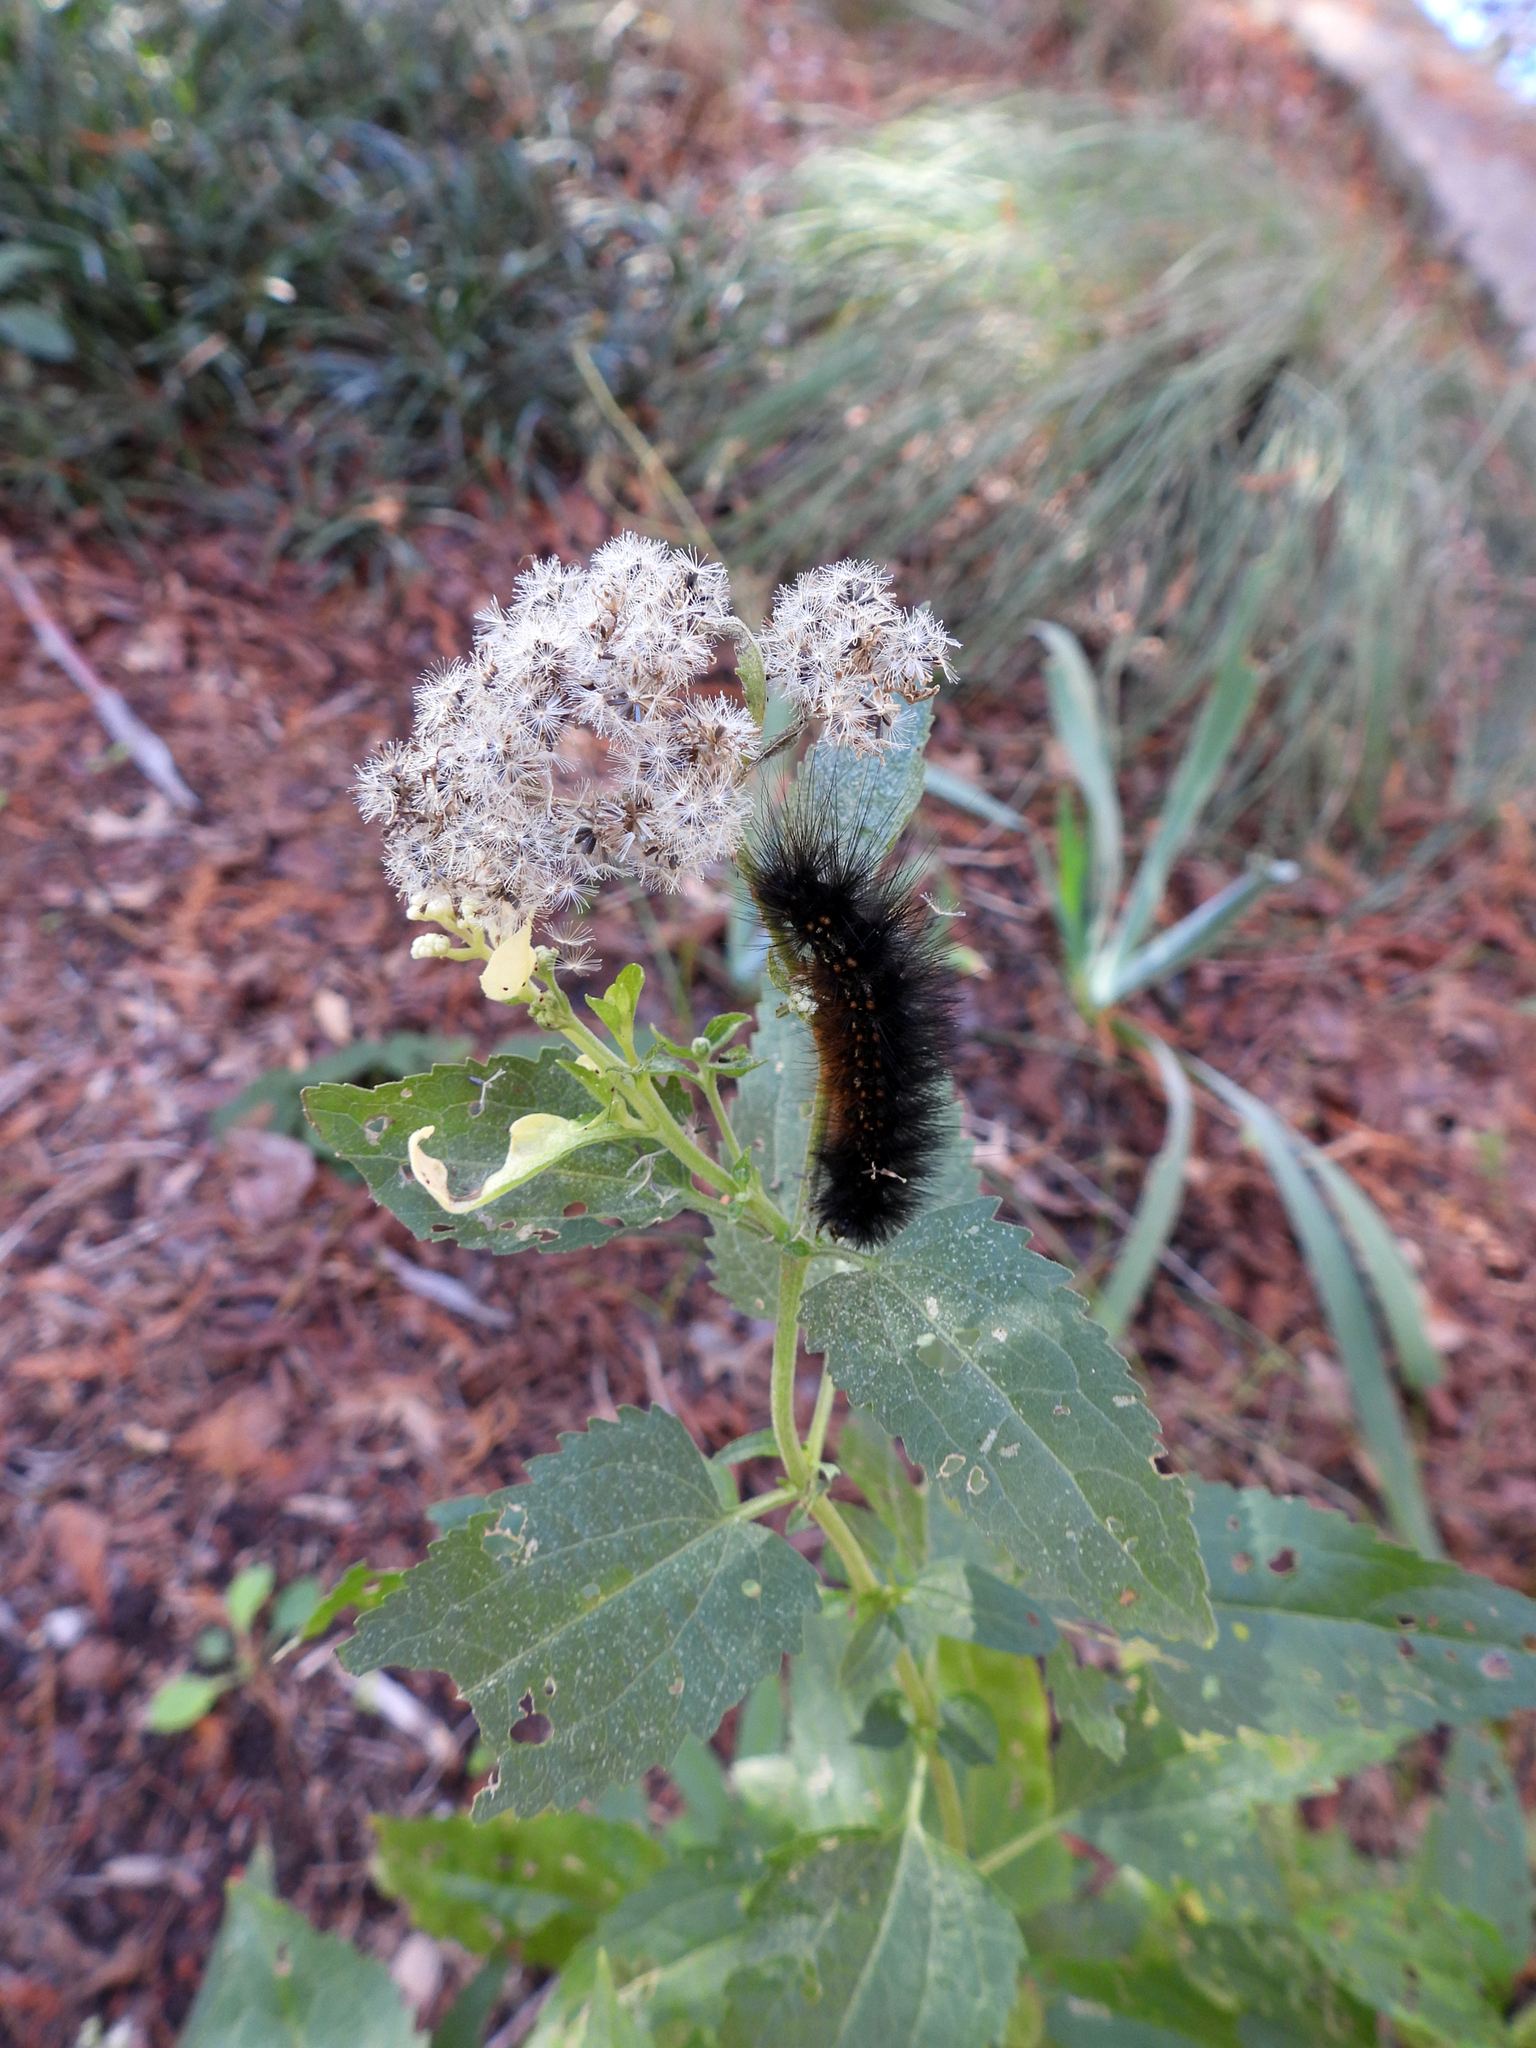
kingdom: Animalia
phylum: Arthropoda
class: Insecta
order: Lepidoptera
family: Erebidae
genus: Estigmene
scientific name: Estigmene acrea
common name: Salt marsh moth
